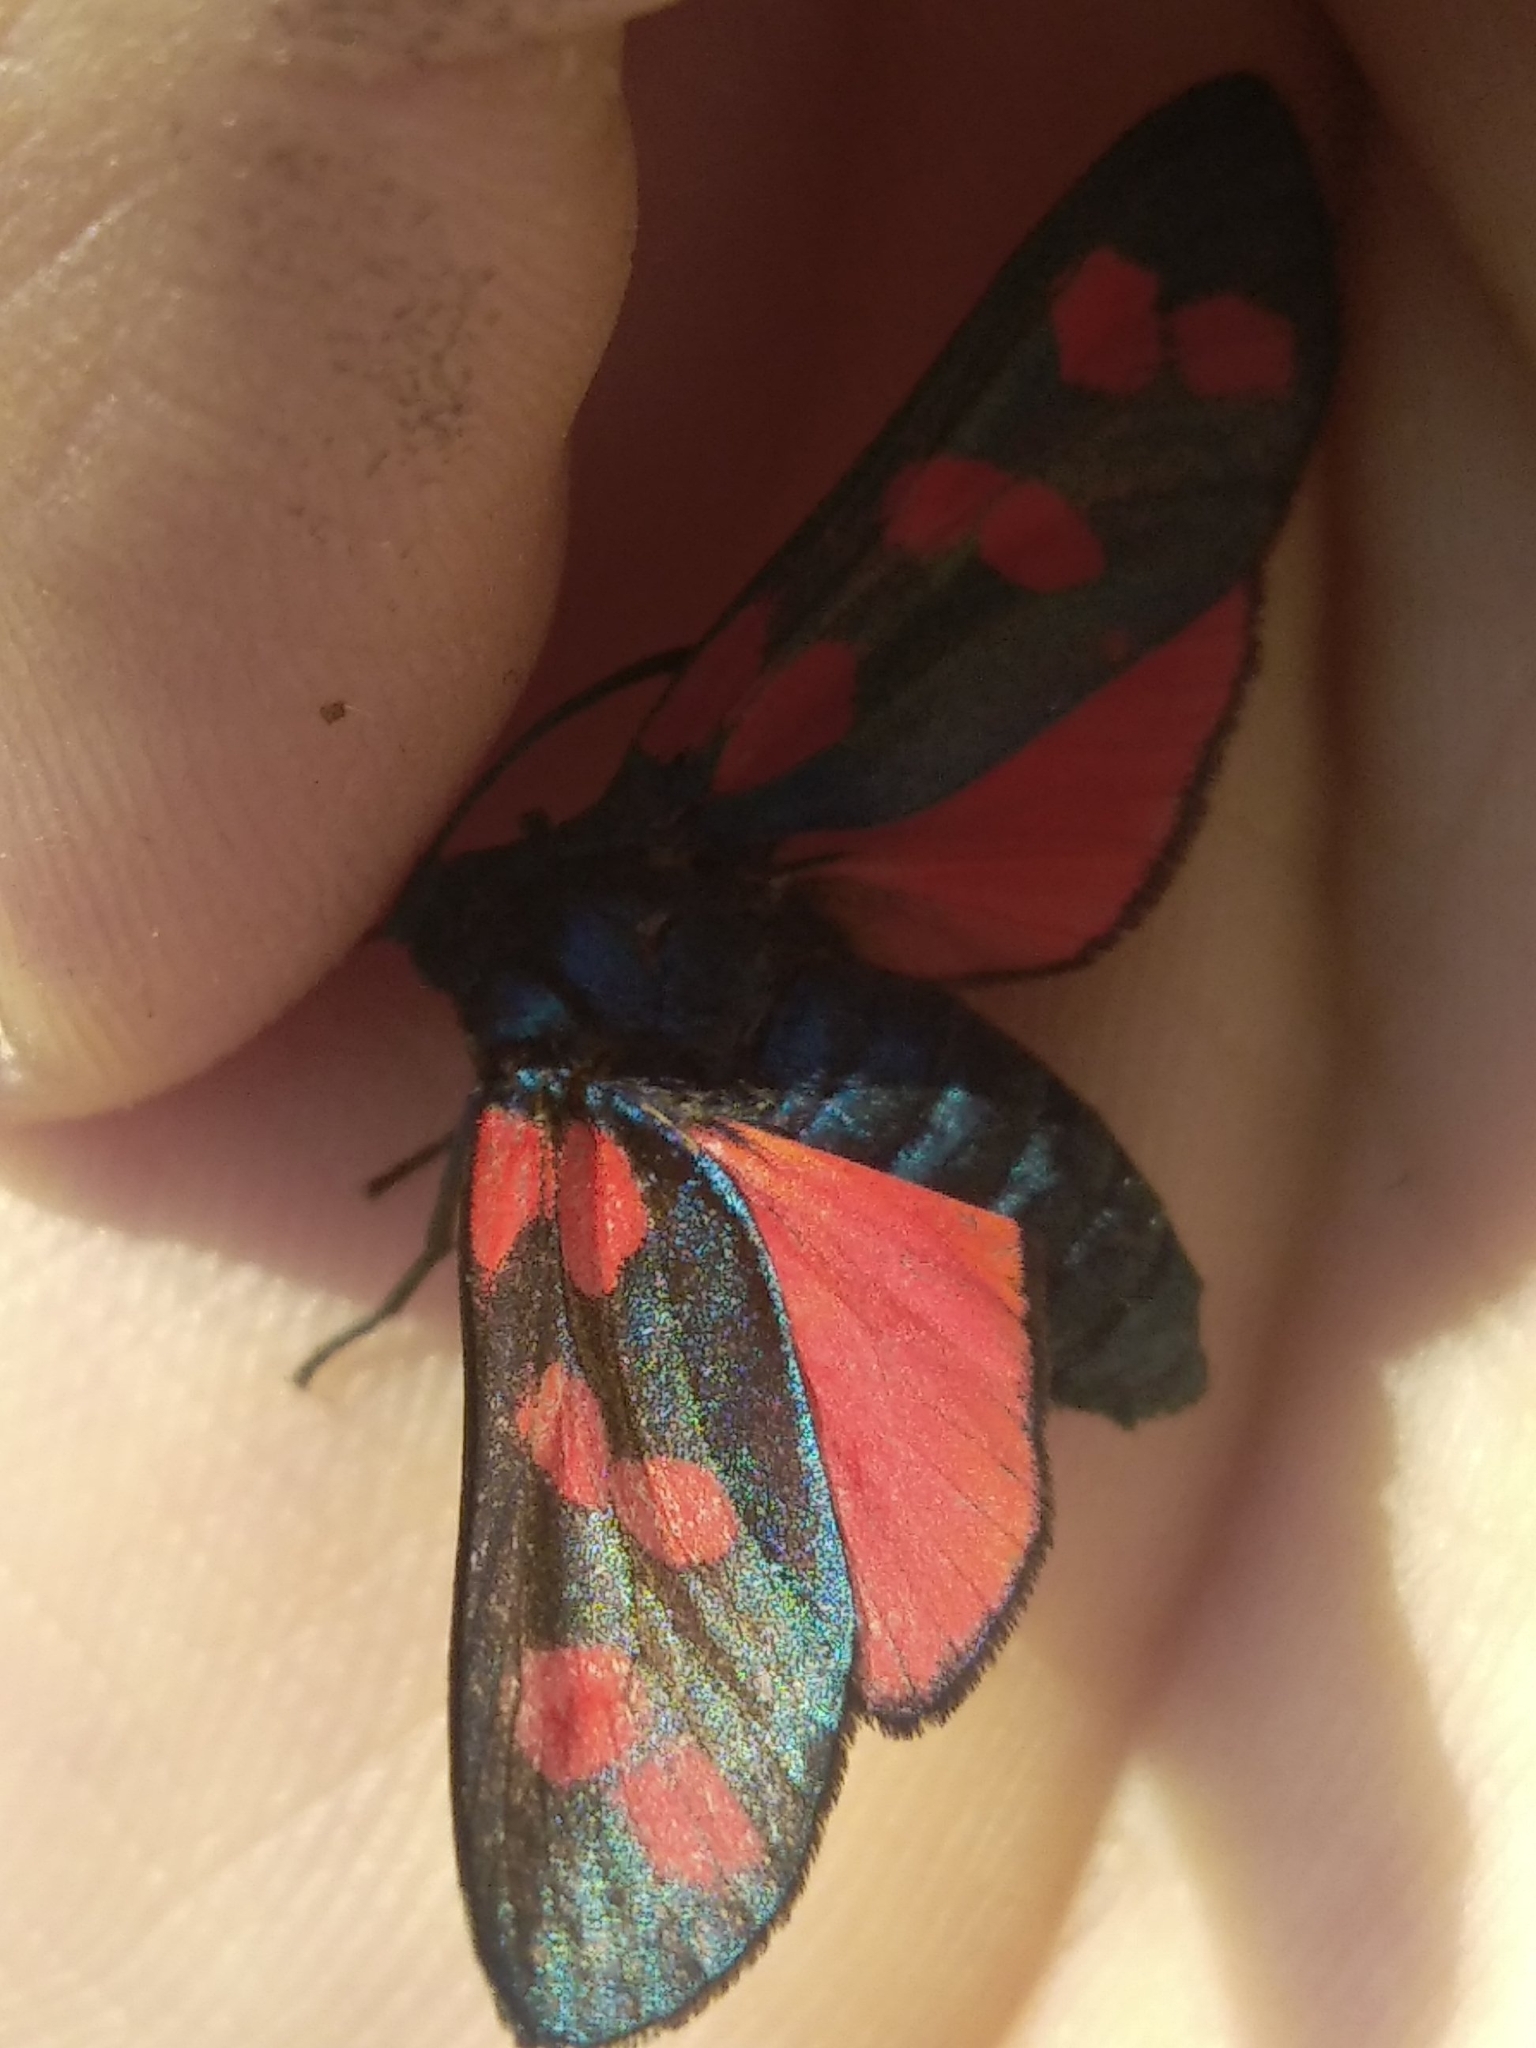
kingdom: Animalia
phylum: Arthropoda
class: Insecta
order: Lepidoptera
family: Zygaenidae
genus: Zygaena
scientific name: Zygaena filipendulae
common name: Six-spot burnet
